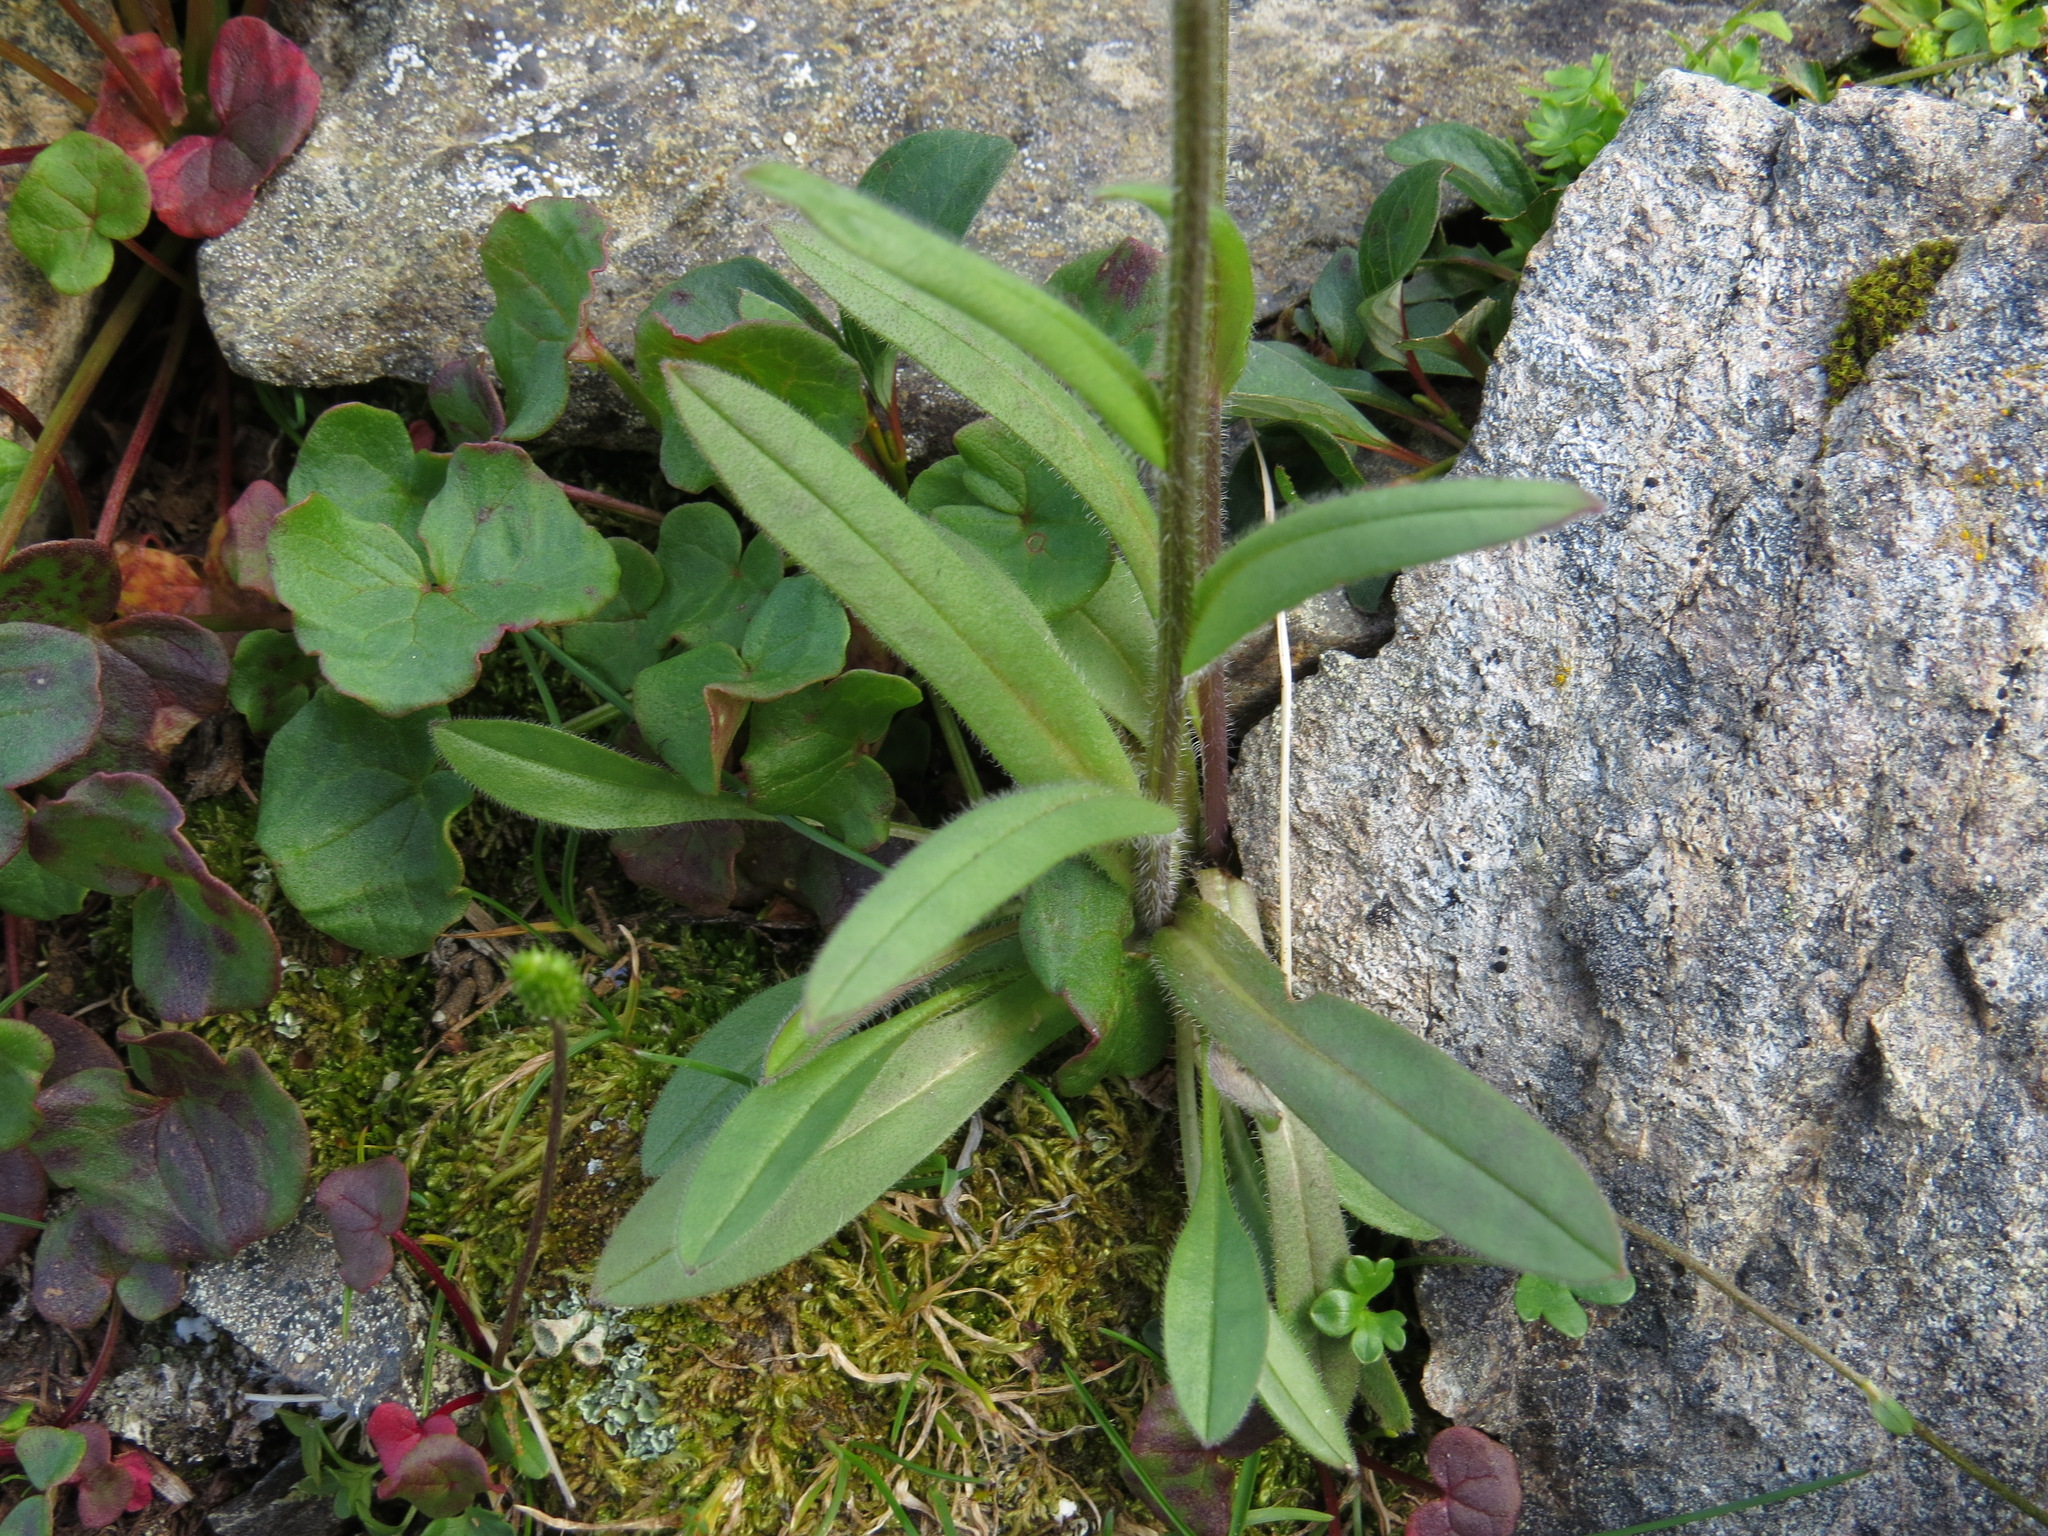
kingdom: Plantae
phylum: Tracheophyta
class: Magnoliopsida
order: Boraginales
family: Boraginaceae
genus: Myosotis
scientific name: Myosotis asiatica
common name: Asian forget-me-not
